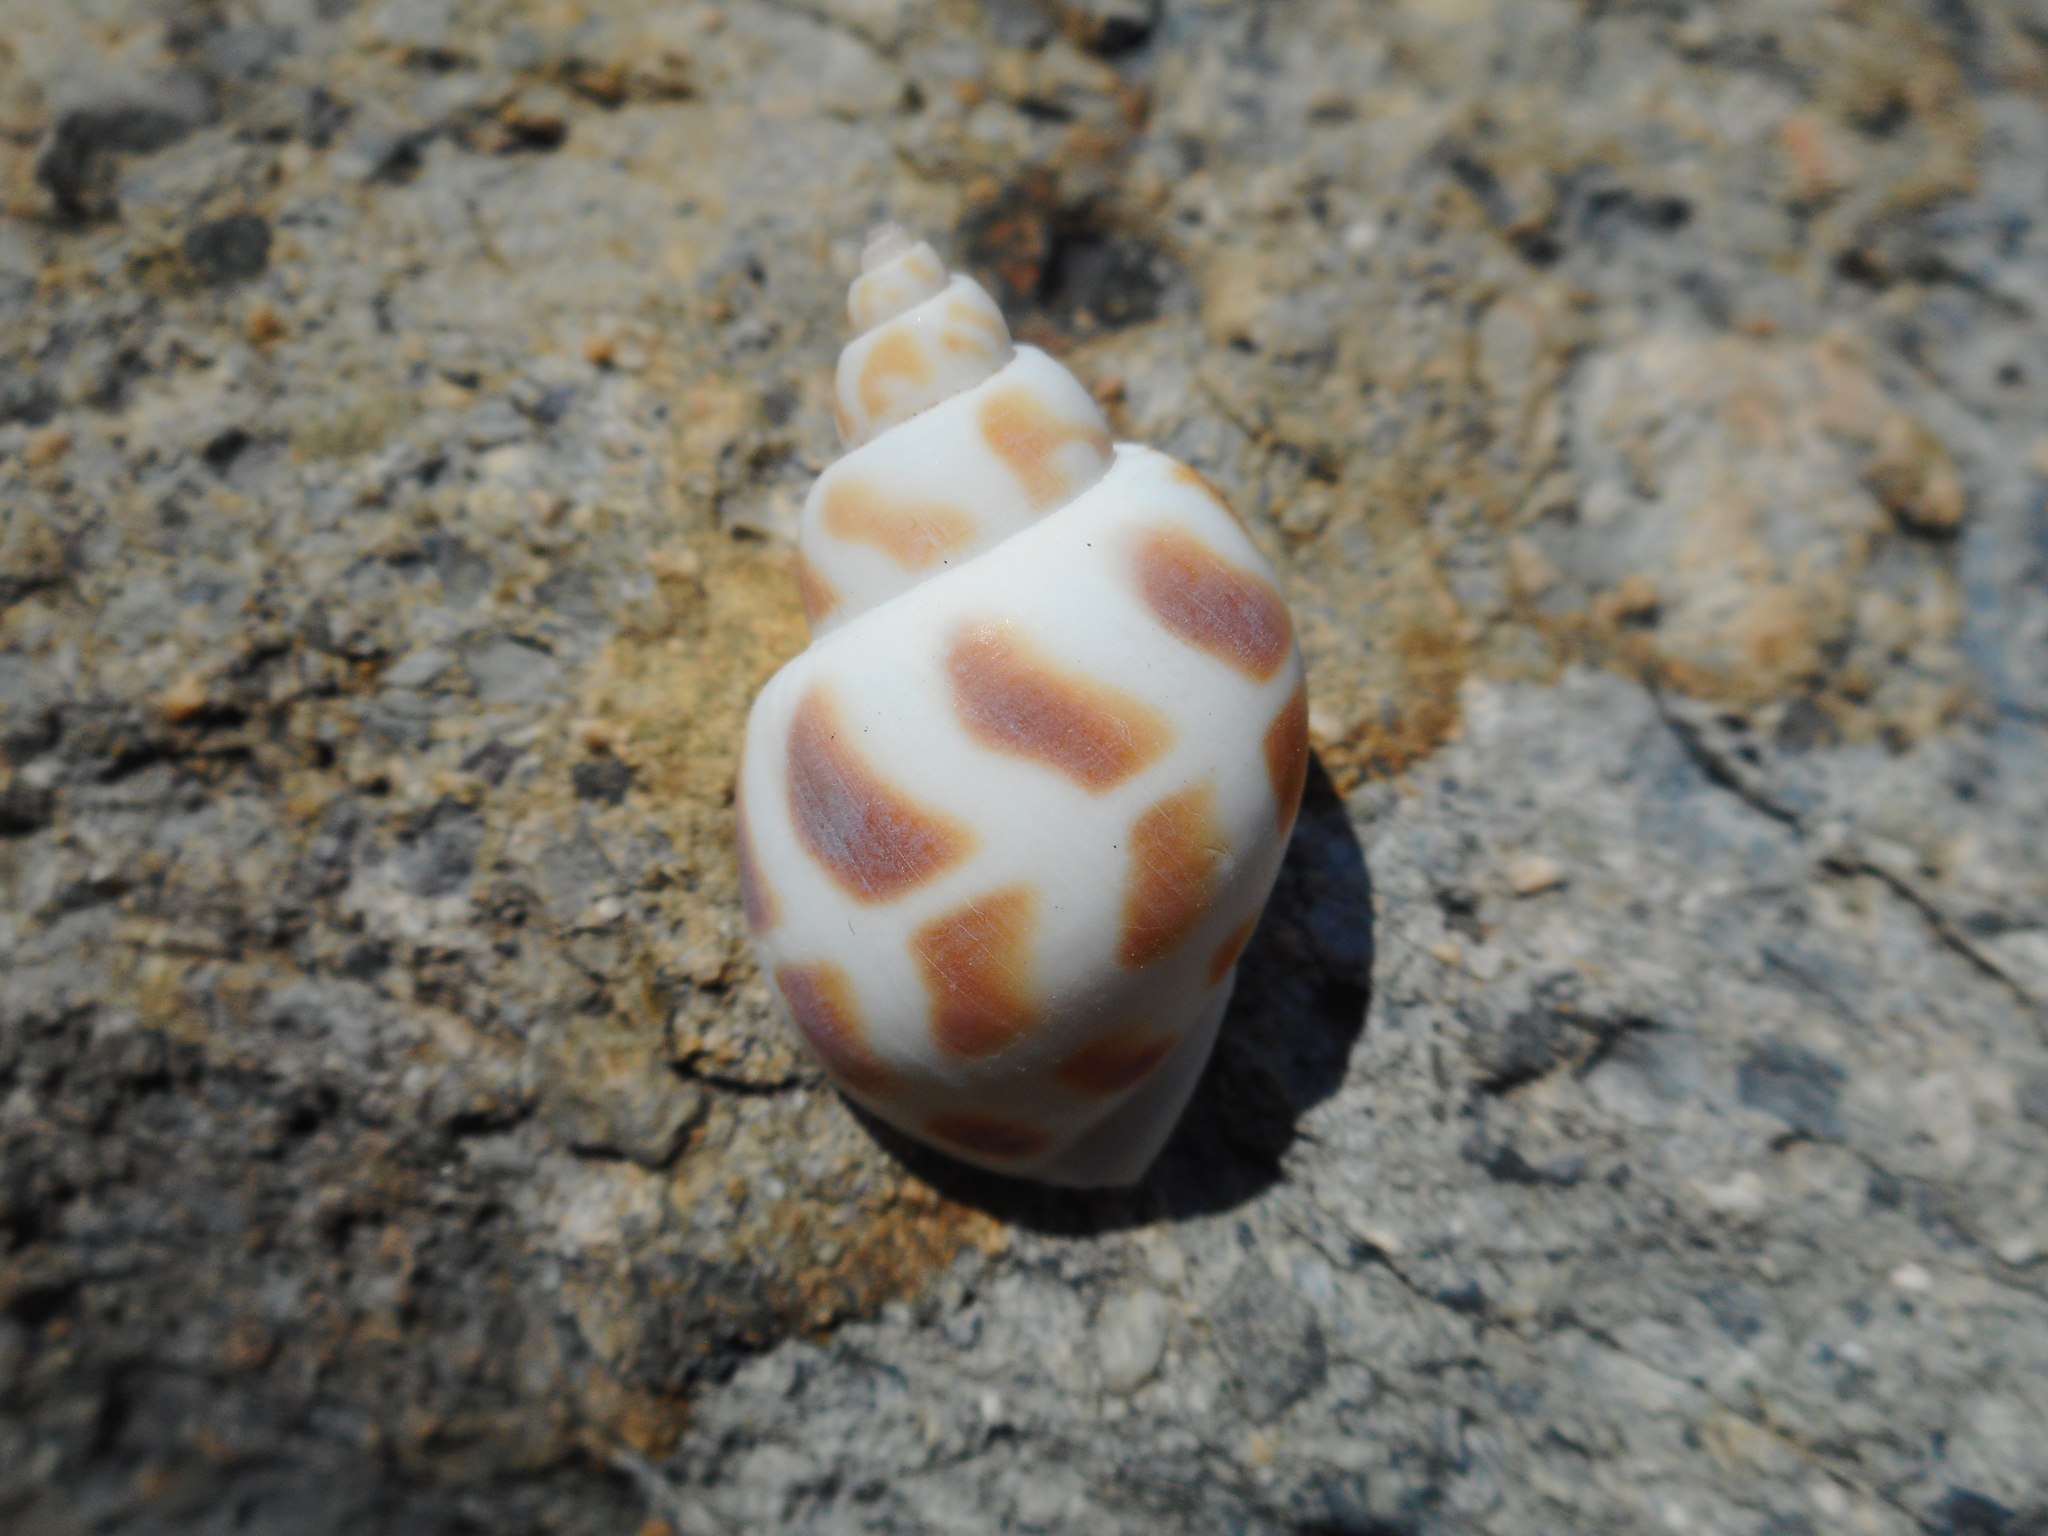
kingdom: Animalia
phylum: Mollusca
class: Gastropoda
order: Neogastropoda
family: Babyloniidae
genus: Babylonia
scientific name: Babylonia areolata
